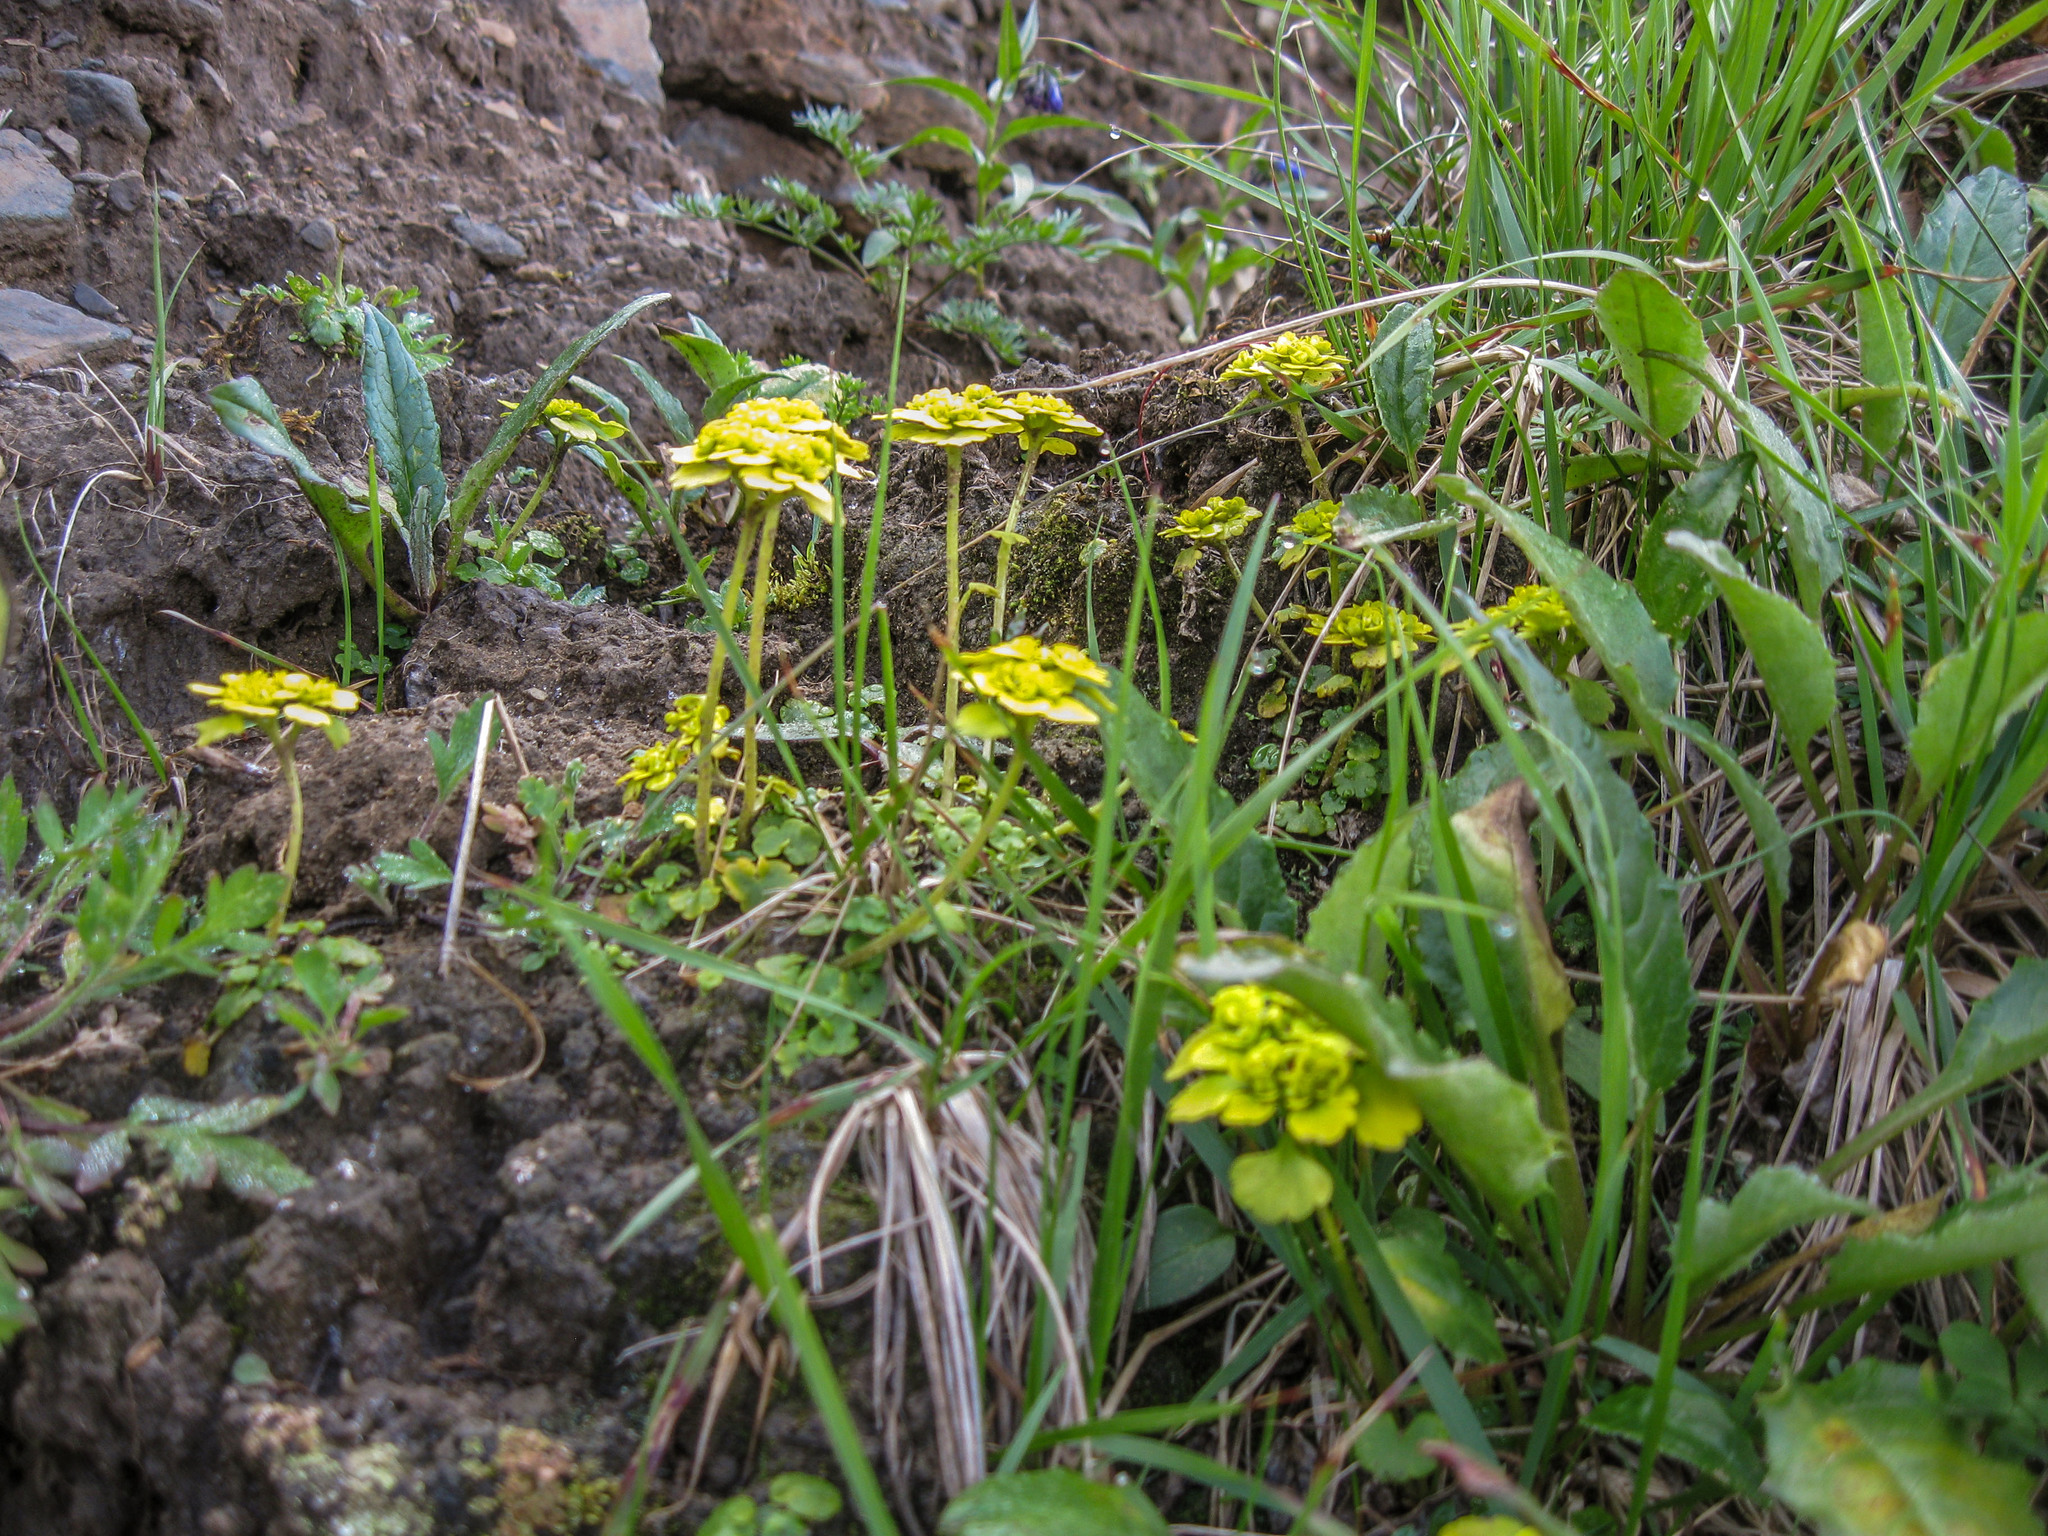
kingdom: Plantae
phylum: Tracheophyta
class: Magnoliopsida
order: Saxifragales
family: Saxifragaceae
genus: Chrysosplenium
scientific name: Chrysosplenium sibiricum
